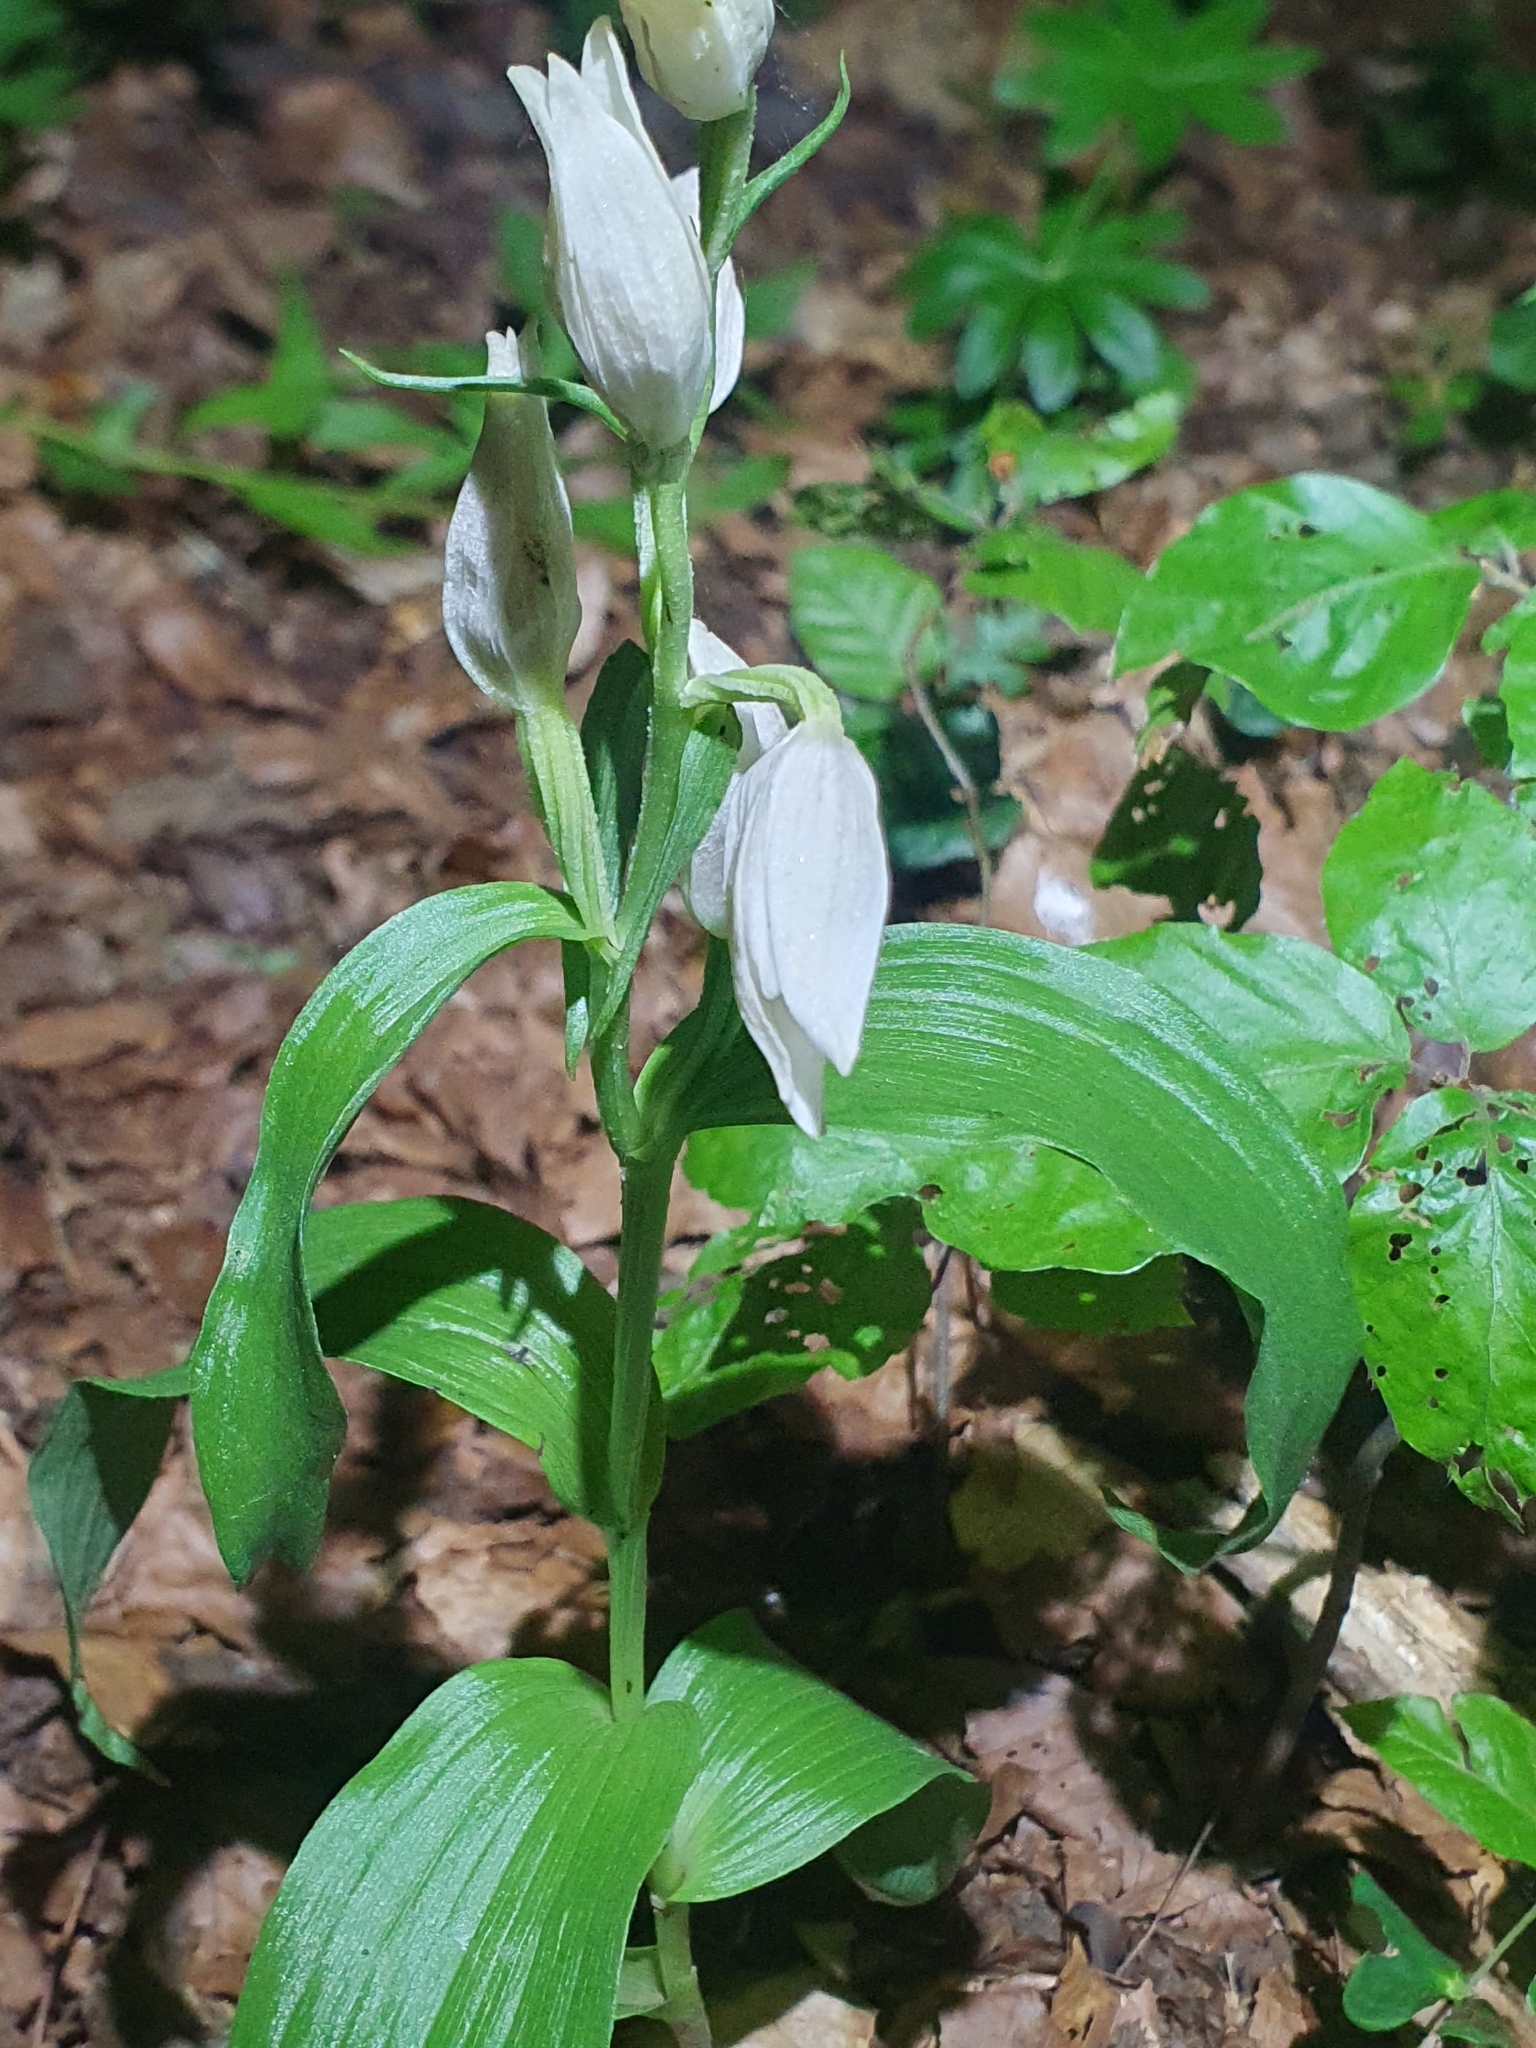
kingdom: Plantae
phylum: Tracheophyta
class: Liliopsida
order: Asparagales
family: Orchidaceae
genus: Cephalanthera
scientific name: Cephalanthera damasonium
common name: White helleborine
